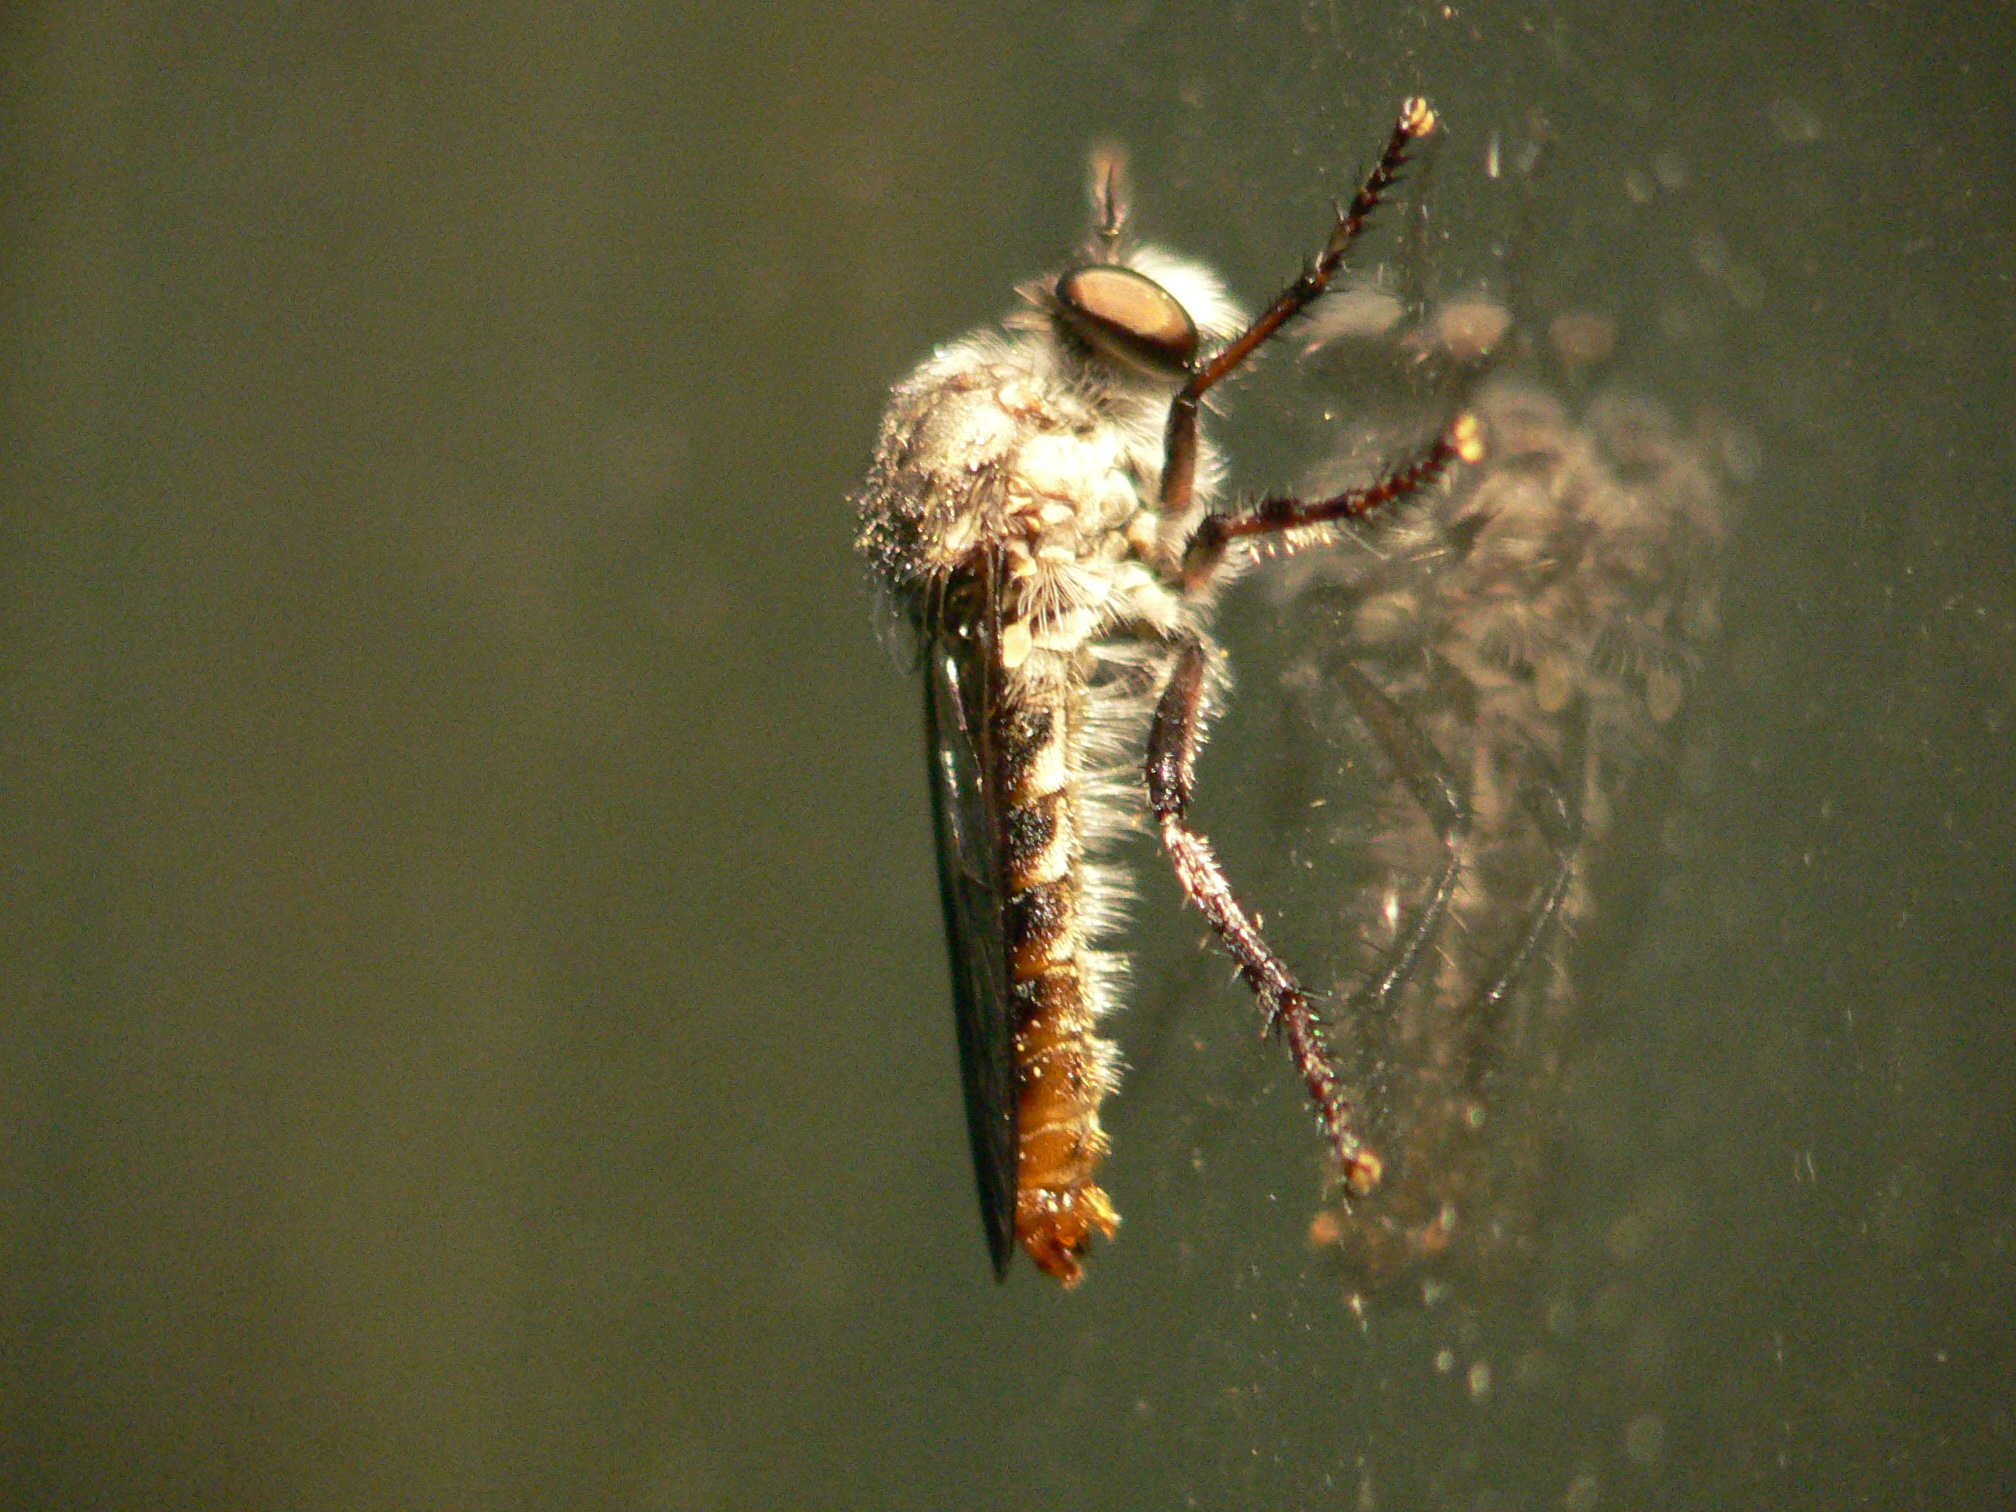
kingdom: Animalia
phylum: Arthropoda
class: Insecta
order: Diptera
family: Asilidae
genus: Heteropogon
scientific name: Heteropogon macerinus
